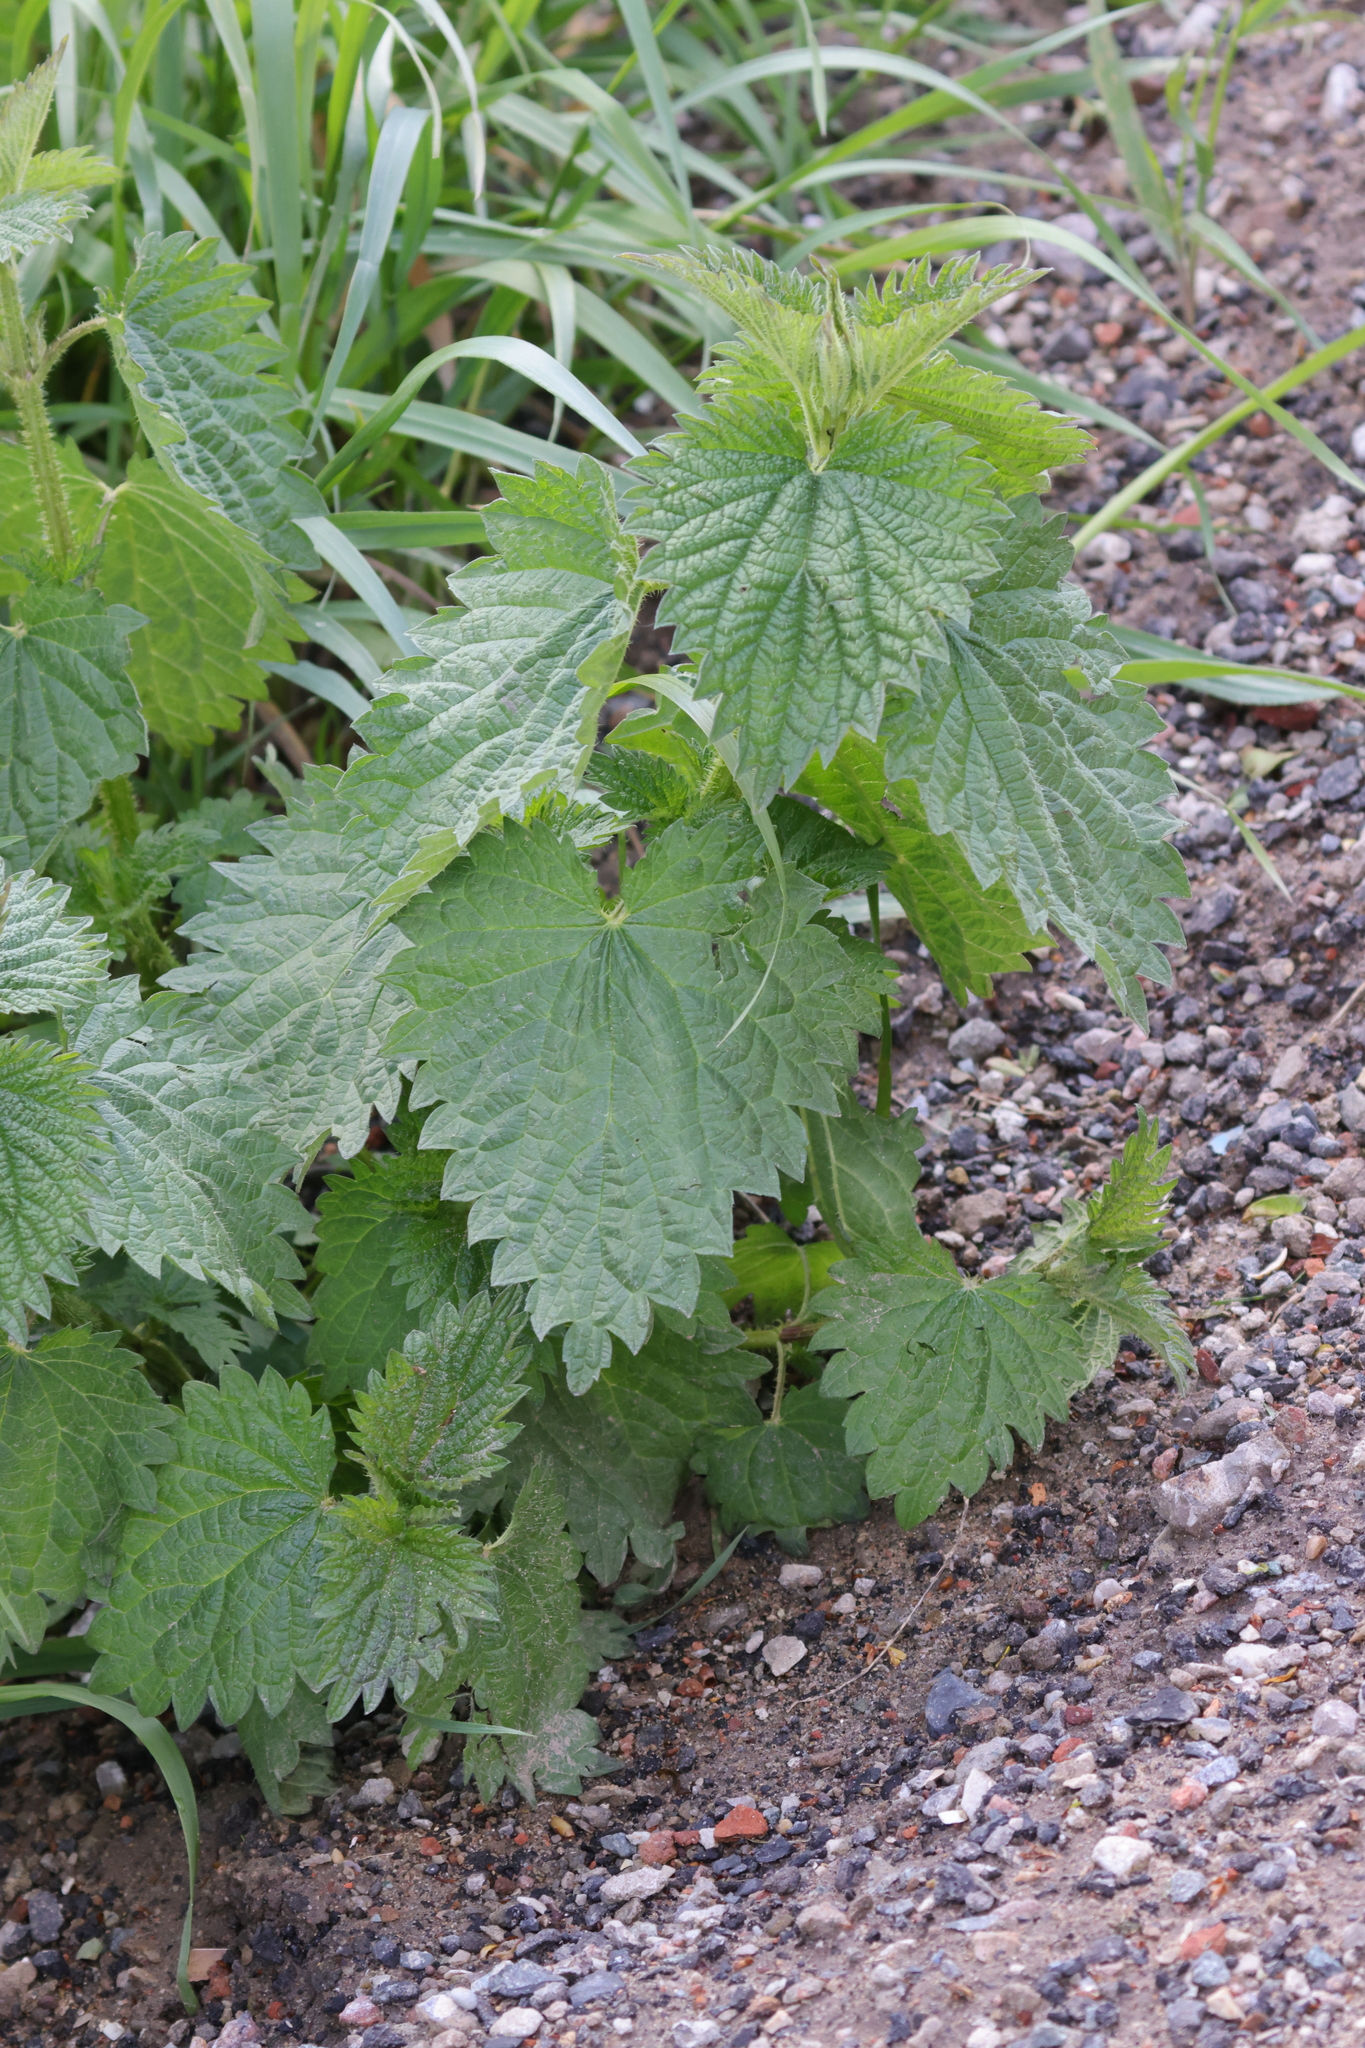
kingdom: Plantae
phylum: Tracheophyta
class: Magnoliopsida
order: Rosales
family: Urticaceae
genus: Urtica
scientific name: Urtica dioica
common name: Common nettle
